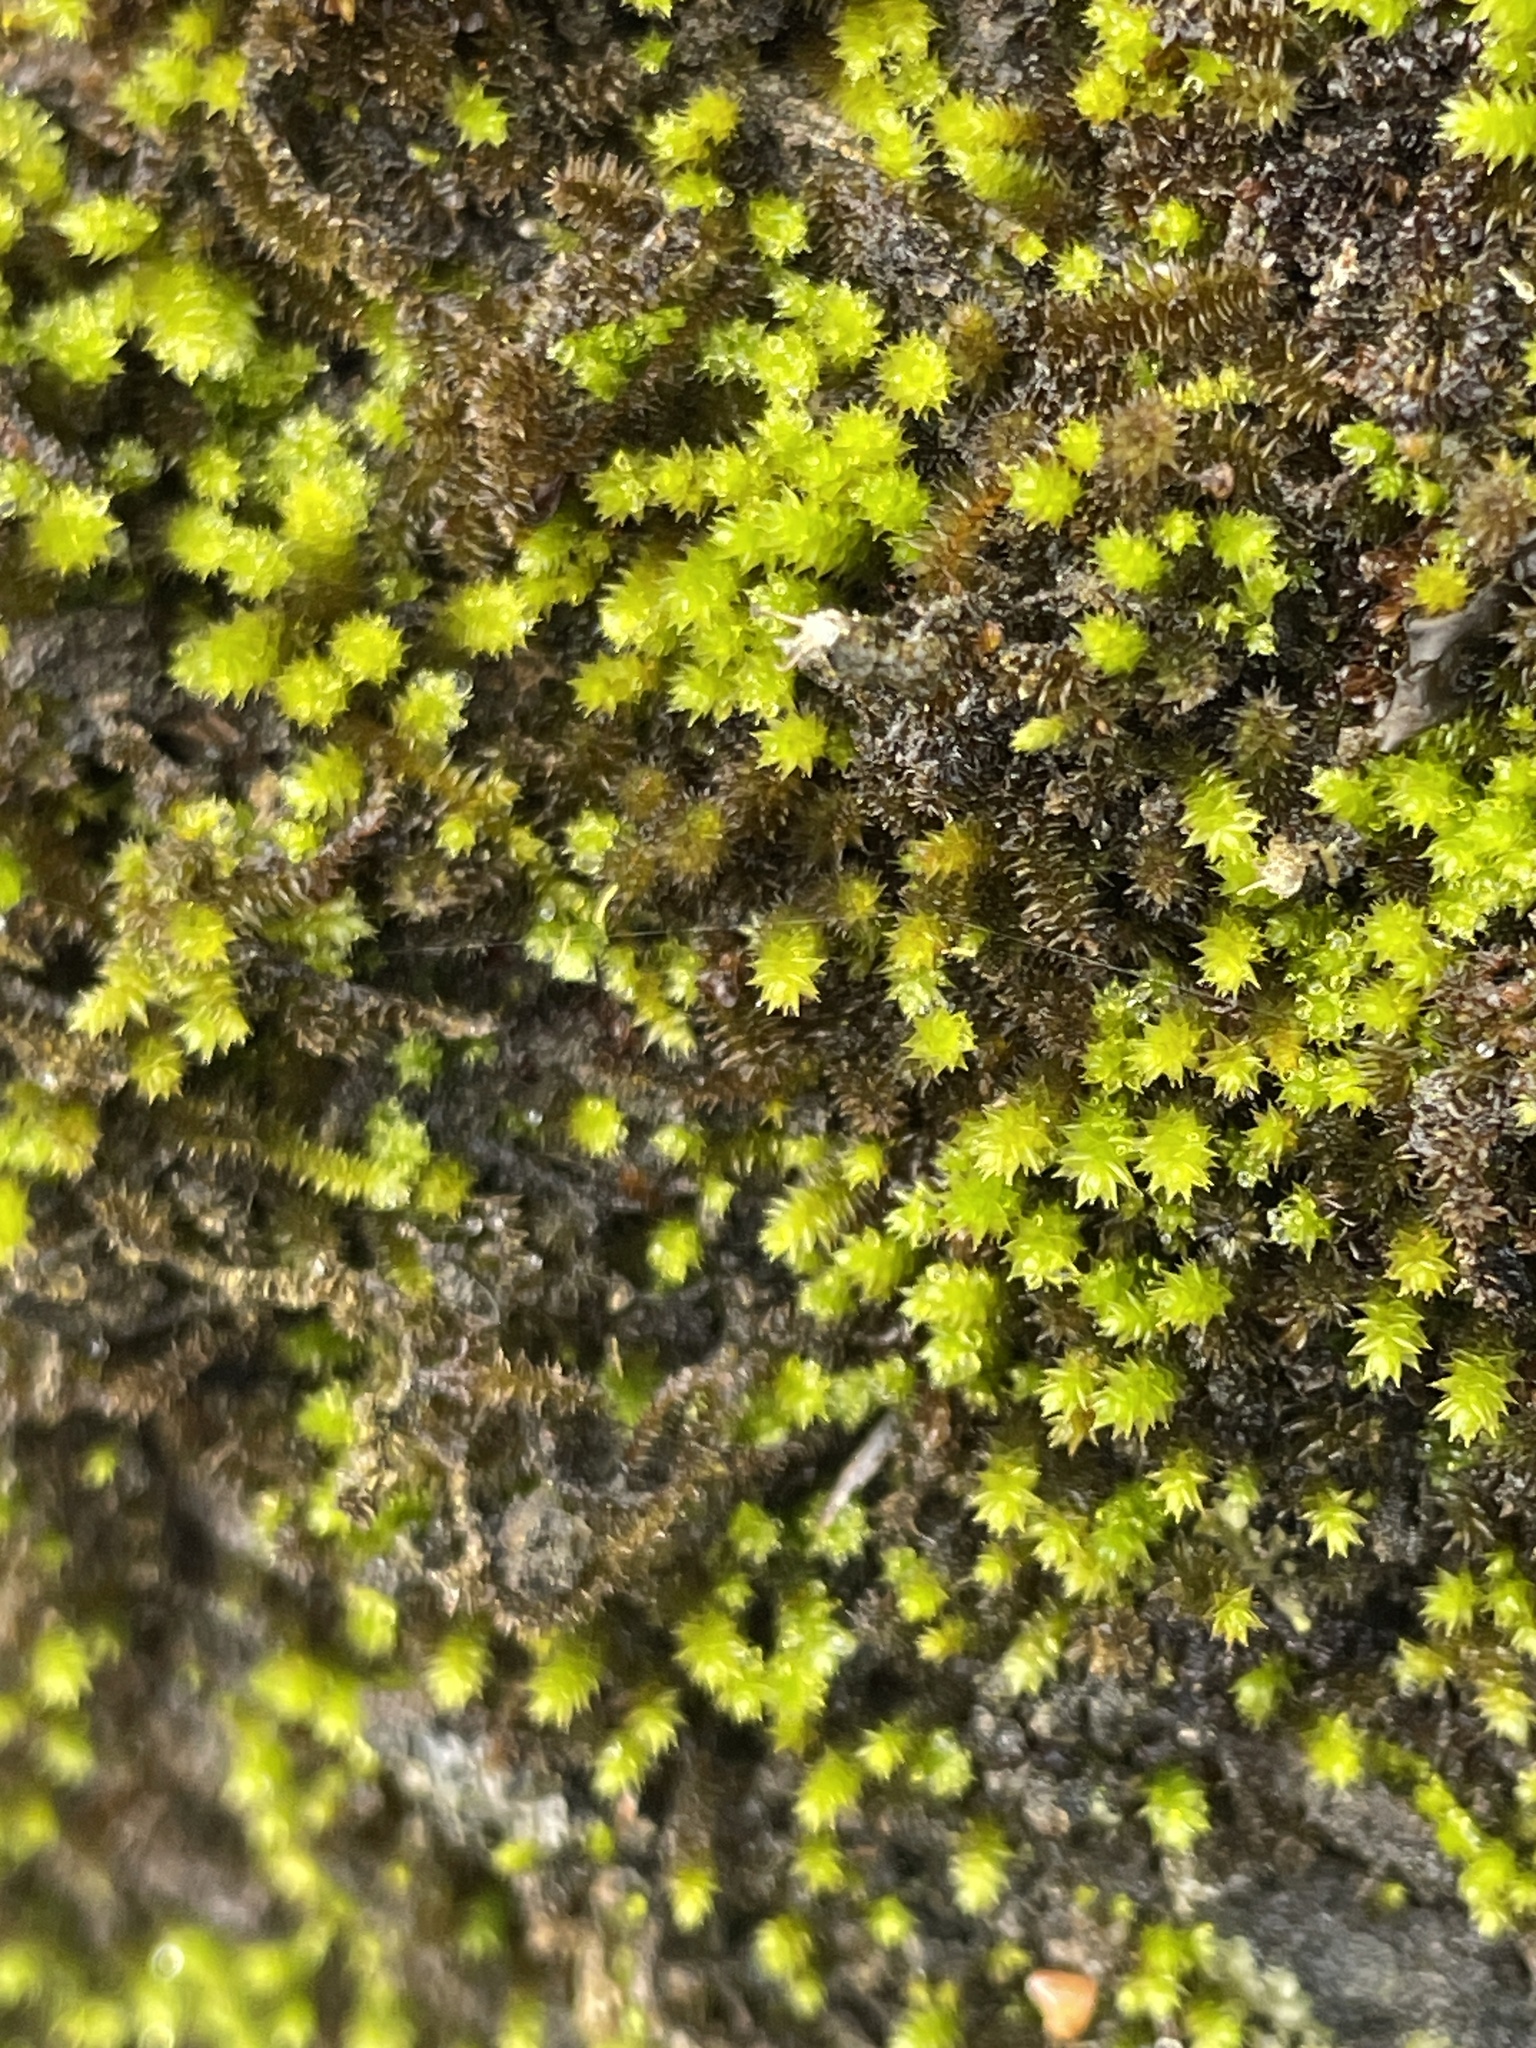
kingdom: Plantae
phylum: Bryophyta
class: Bryopsida
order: Hypnales
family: Leucodontaceae
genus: Leucodon
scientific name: Leucodon julaceus
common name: Smooth hook moss
